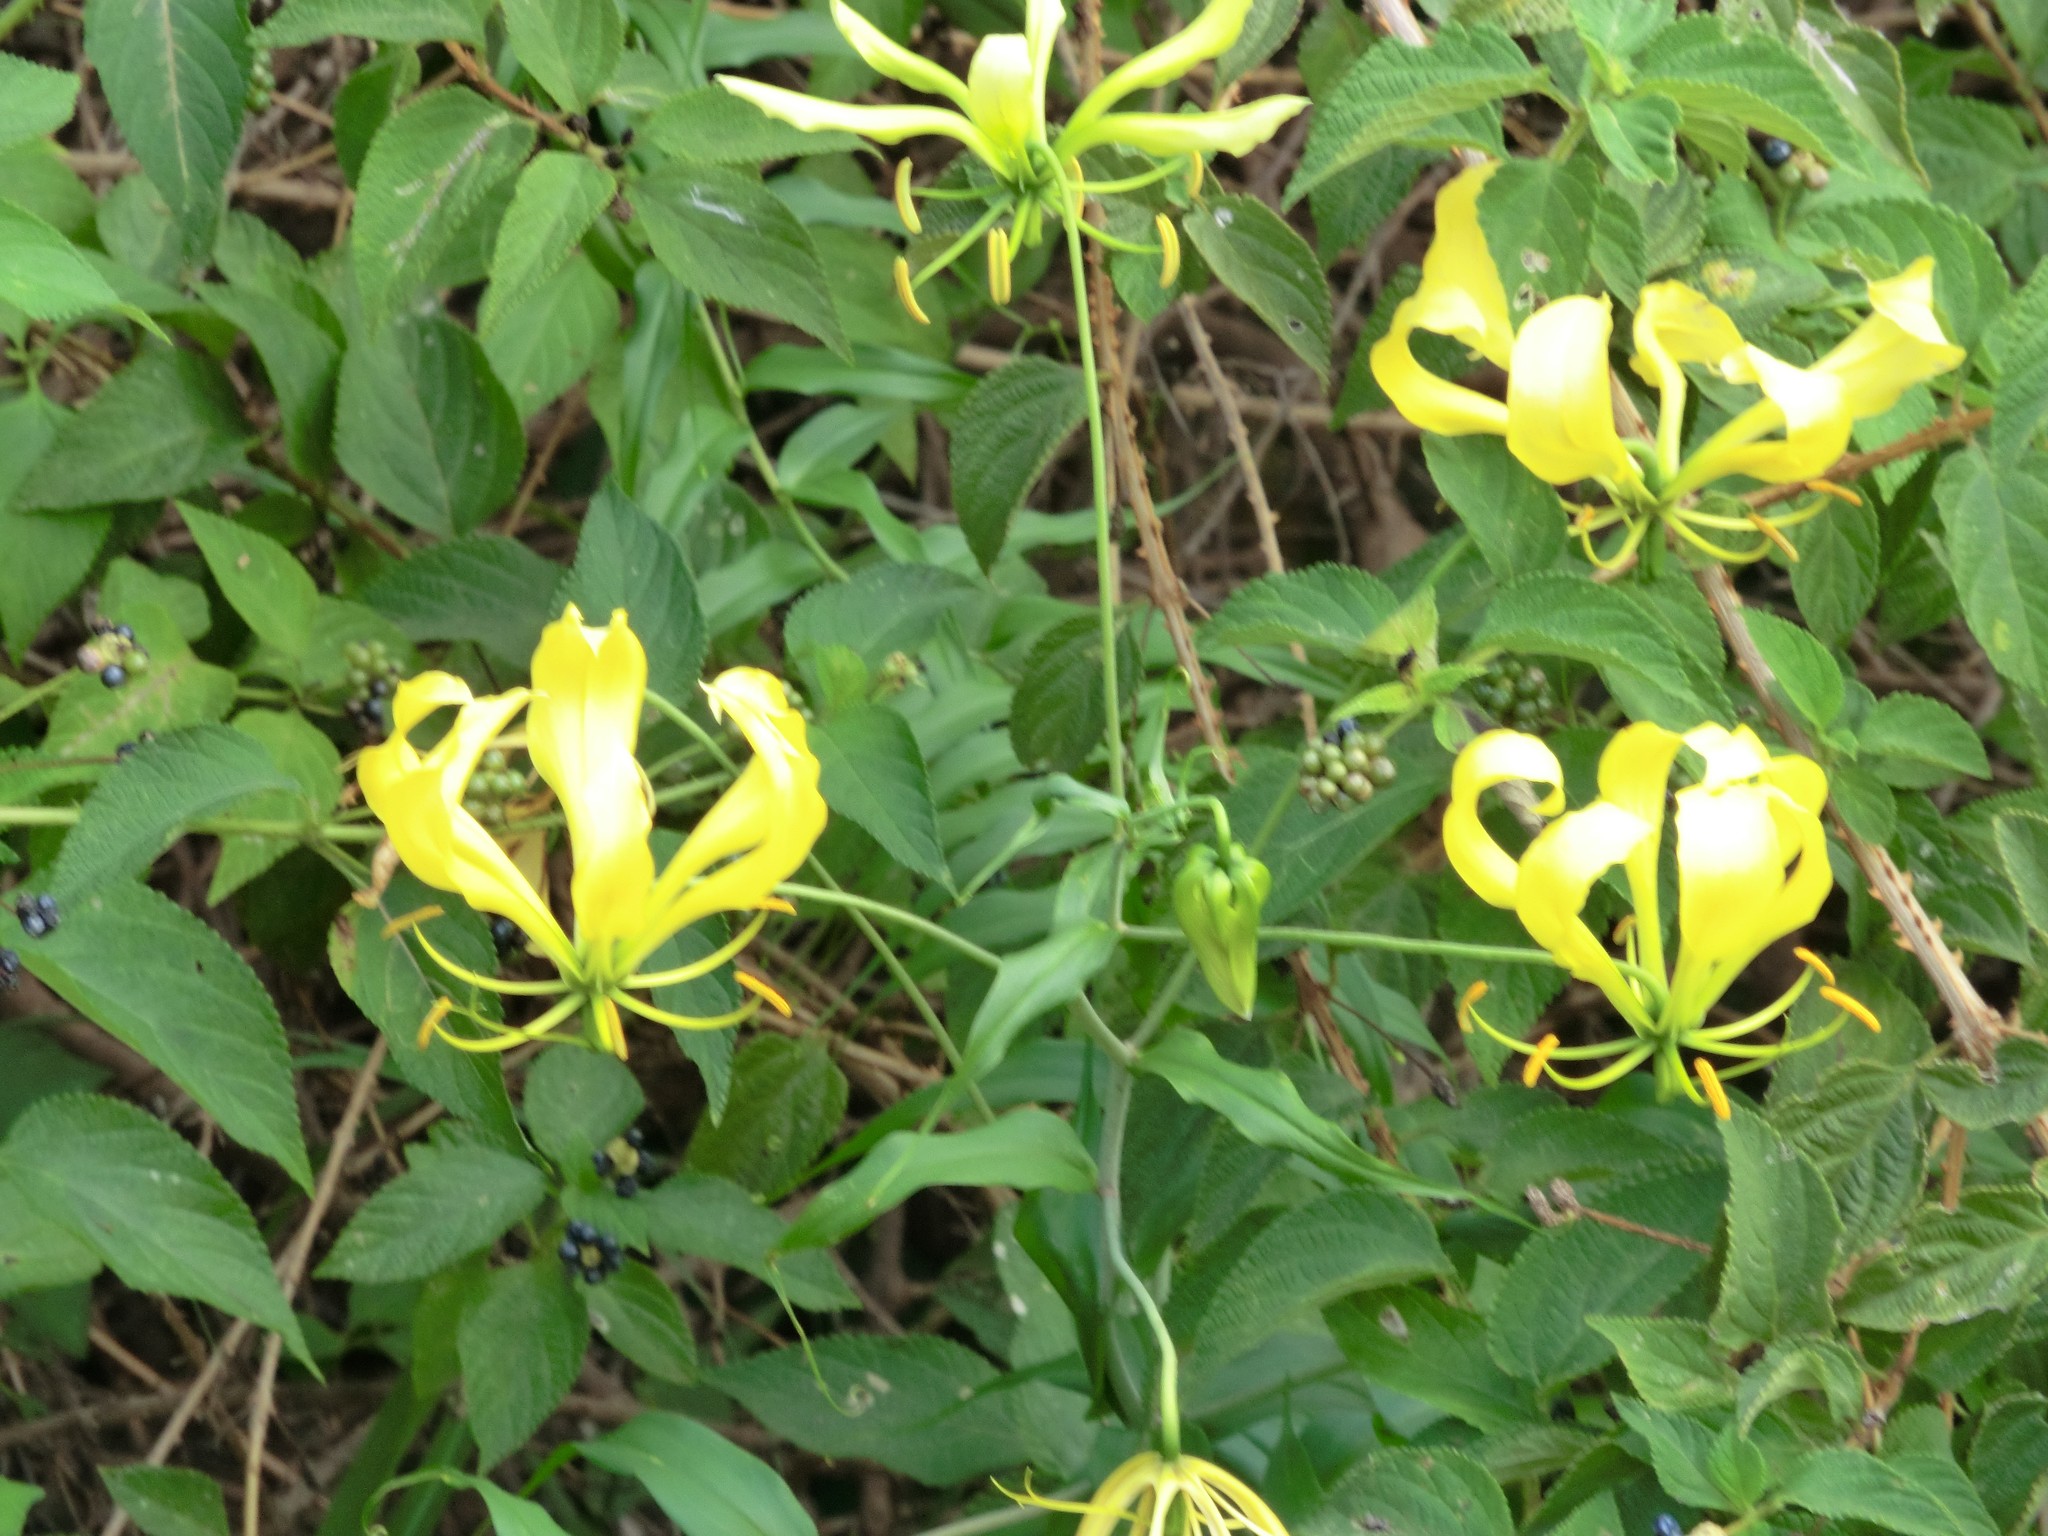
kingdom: Plantae
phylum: Tracheophyta
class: Liliopsida
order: Liliales
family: Colchicaceae
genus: Gloriosa
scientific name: Gloriosa superba
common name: Flame lily
